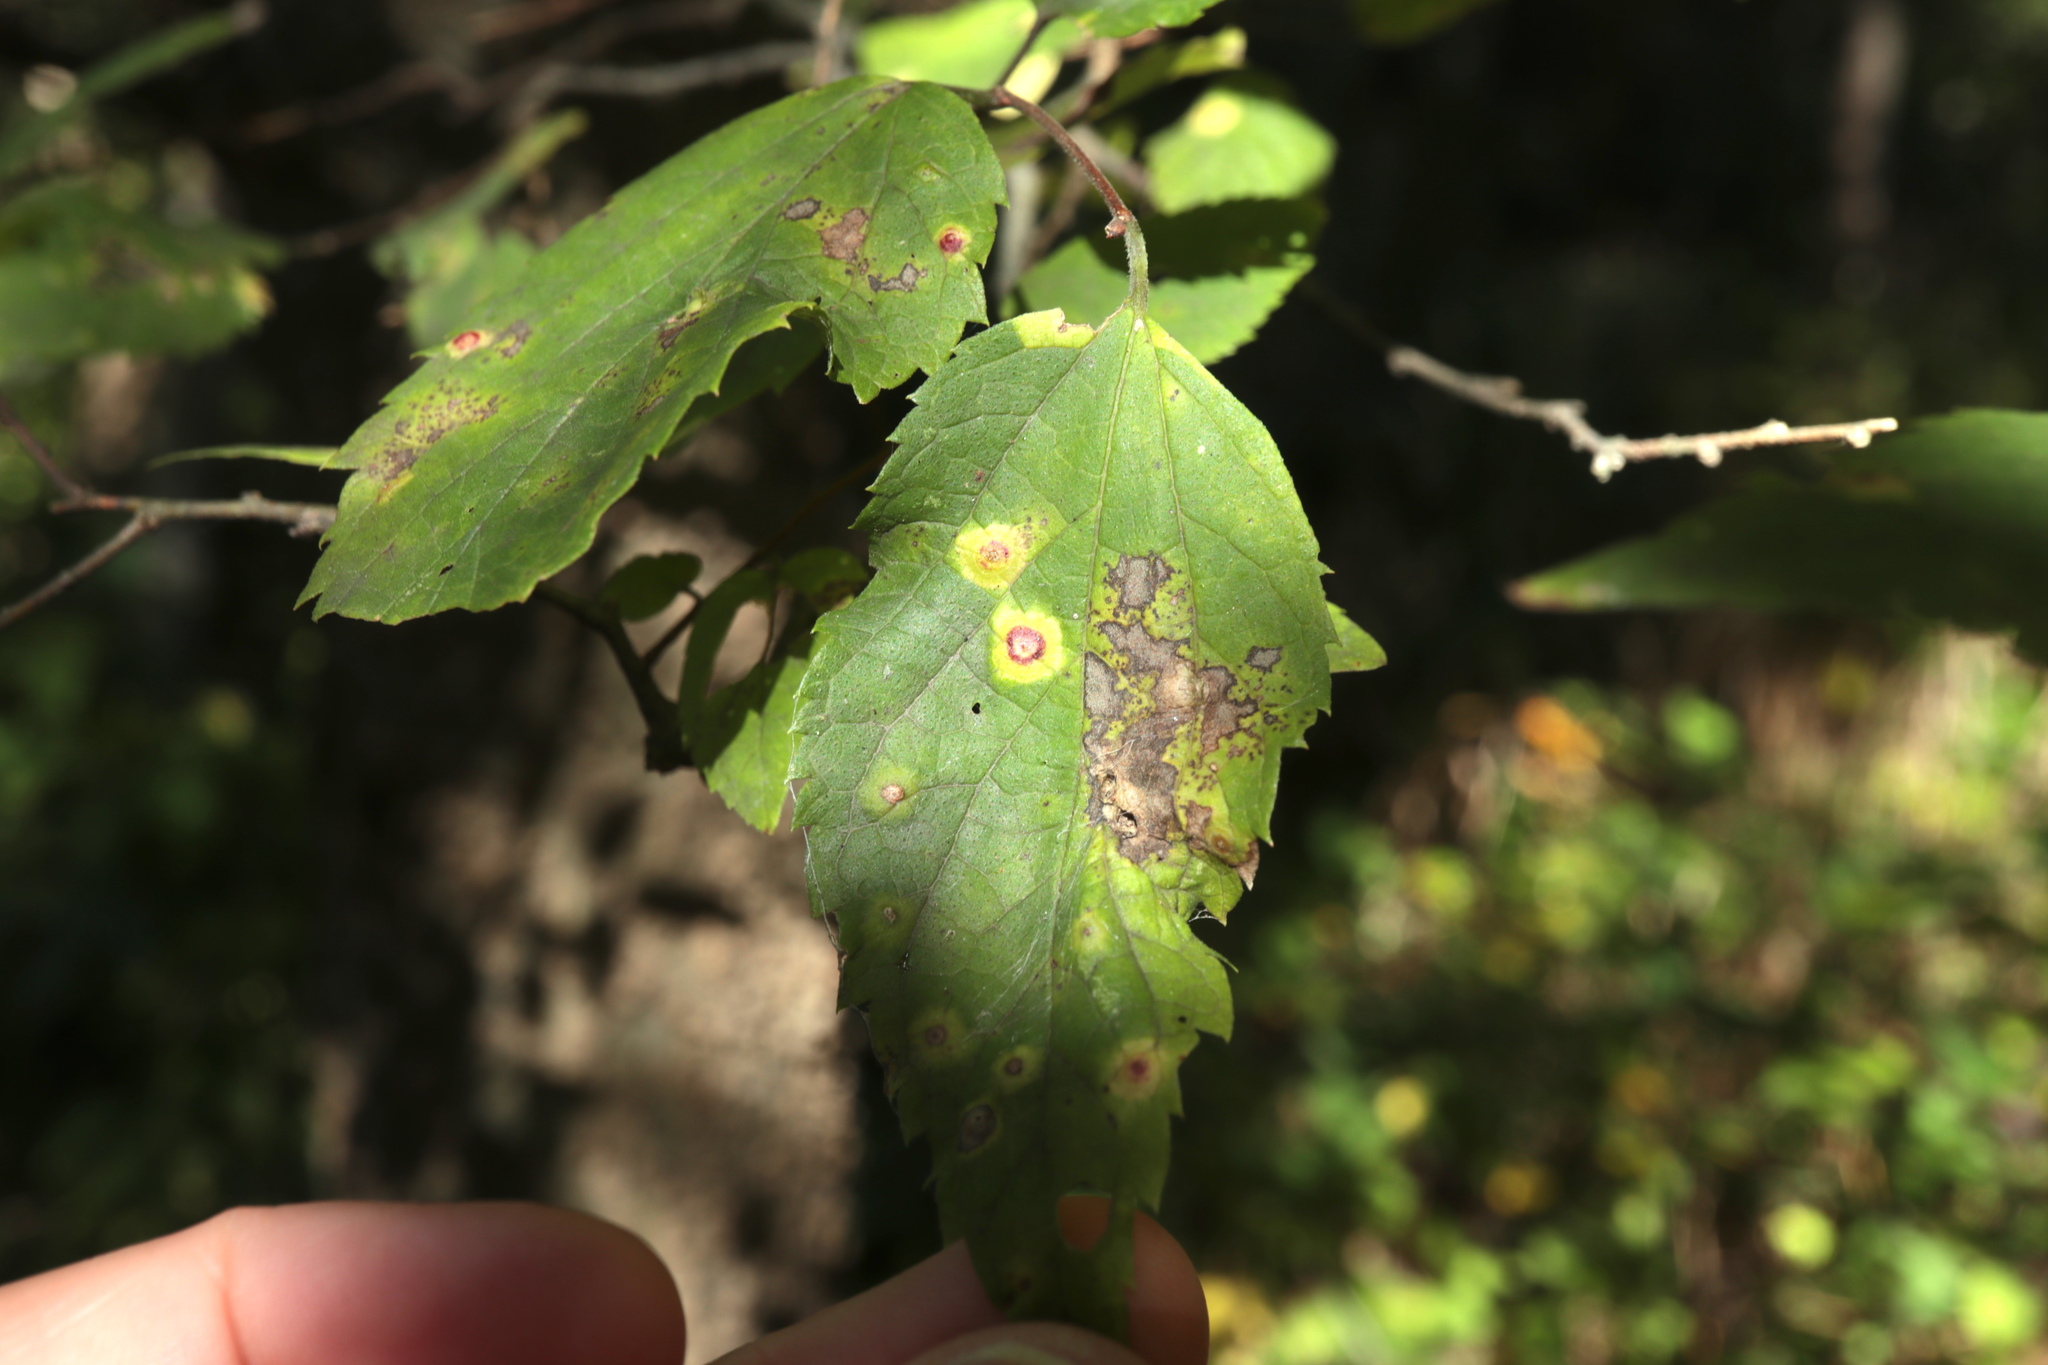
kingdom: Animalia
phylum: Arthropoda
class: Insecta
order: Hemiptera
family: Aphalaridae
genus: Pachypsylla
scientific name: Pachypsylla celtidismamma
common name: Hackberry nipplegall psyllid
